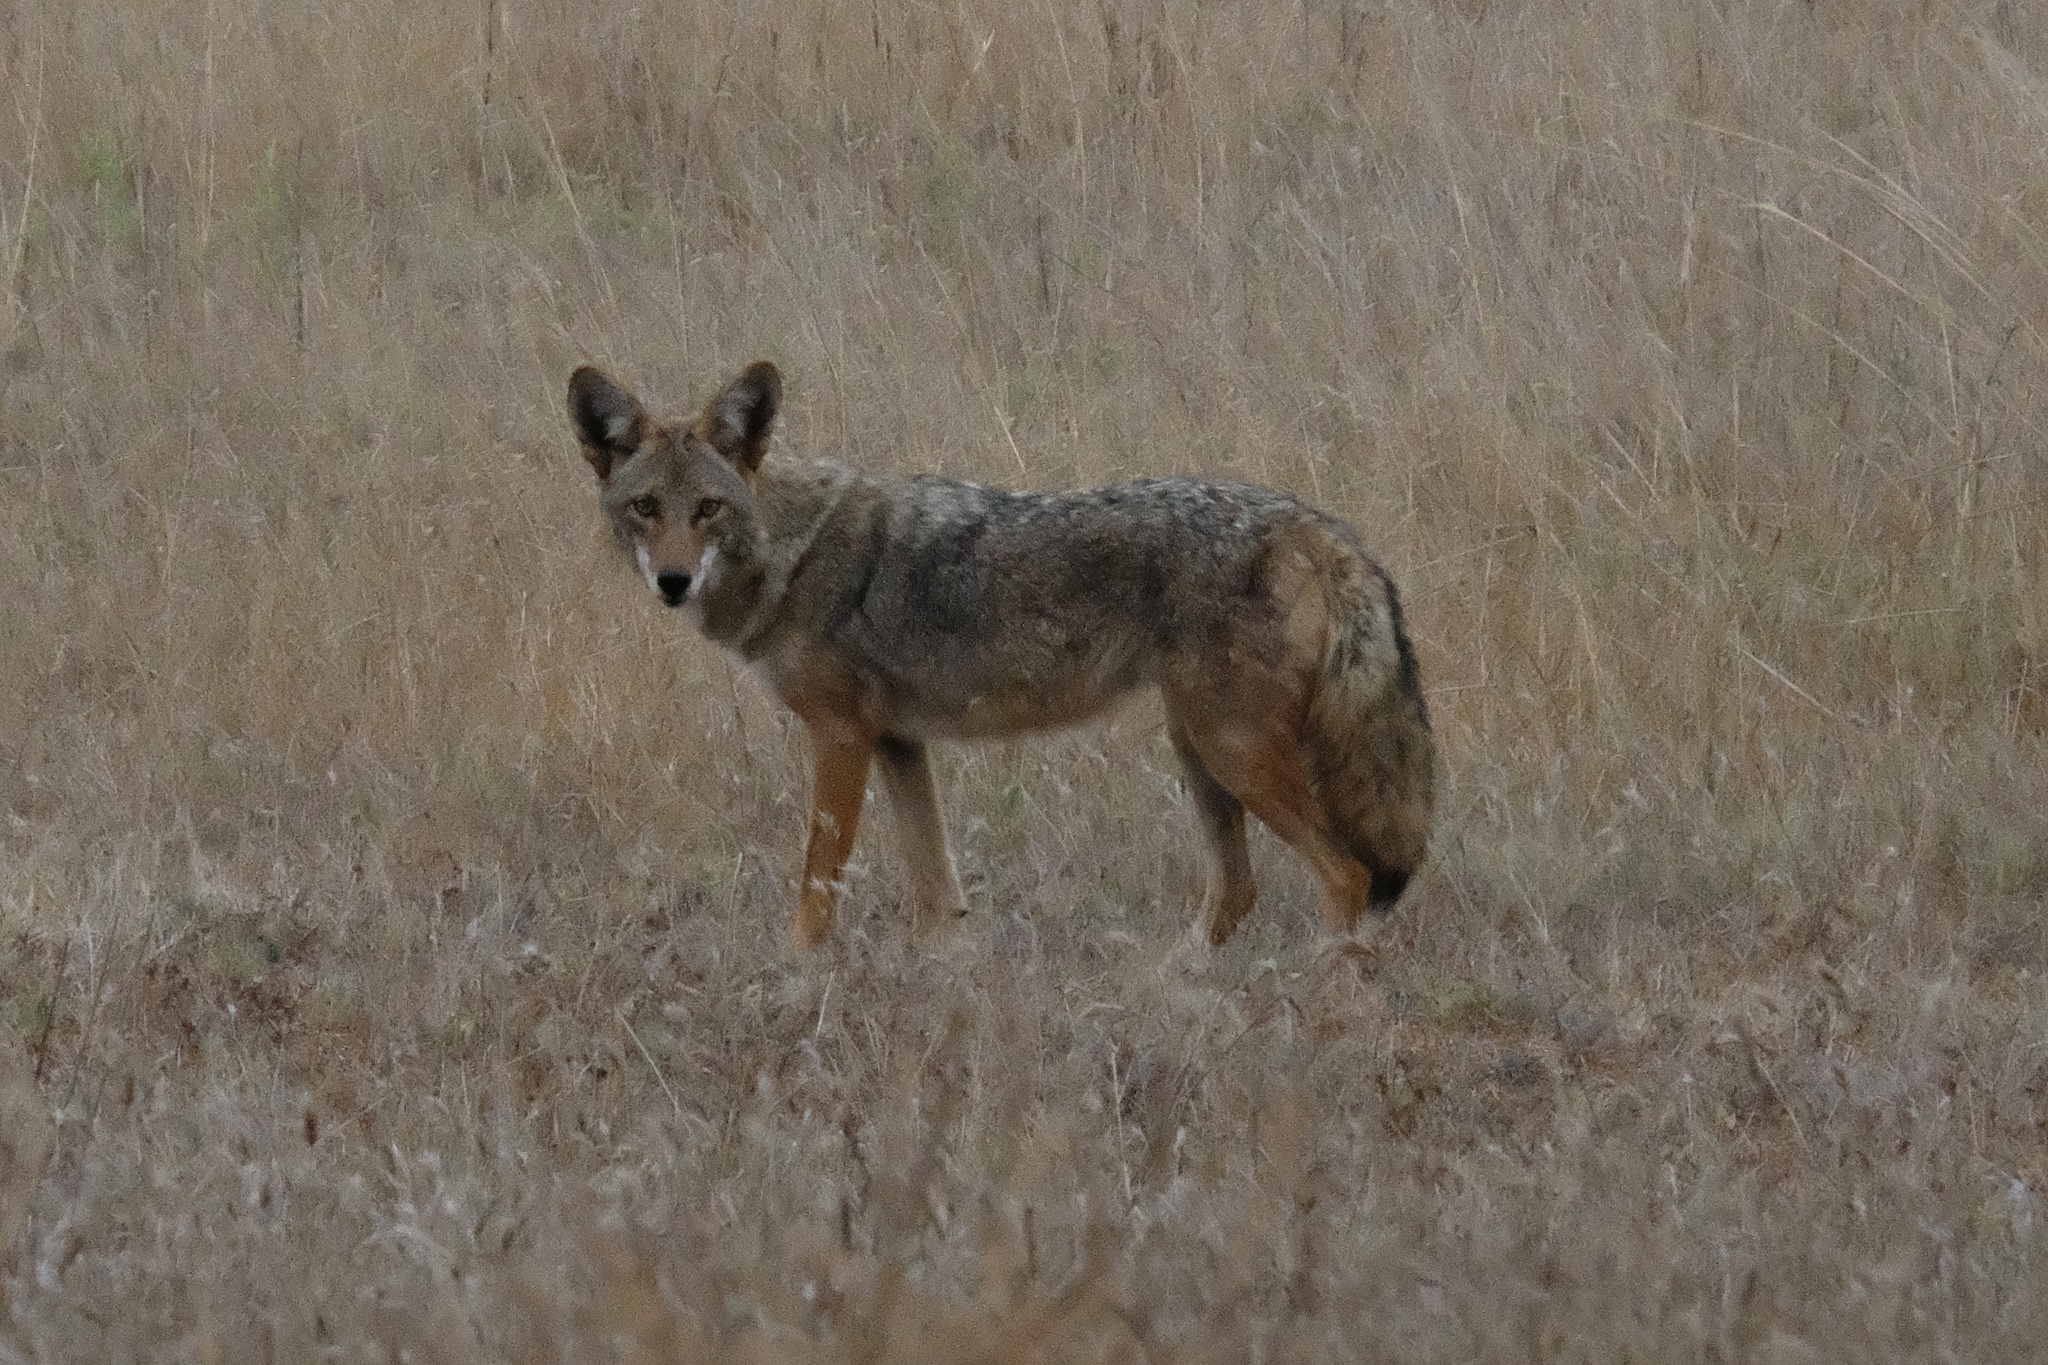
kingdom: Animalia
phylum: Chordata
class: Mammalia
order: Carnivora
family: Canidae
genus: Canis
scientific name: Canis latrans
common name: Coyote
